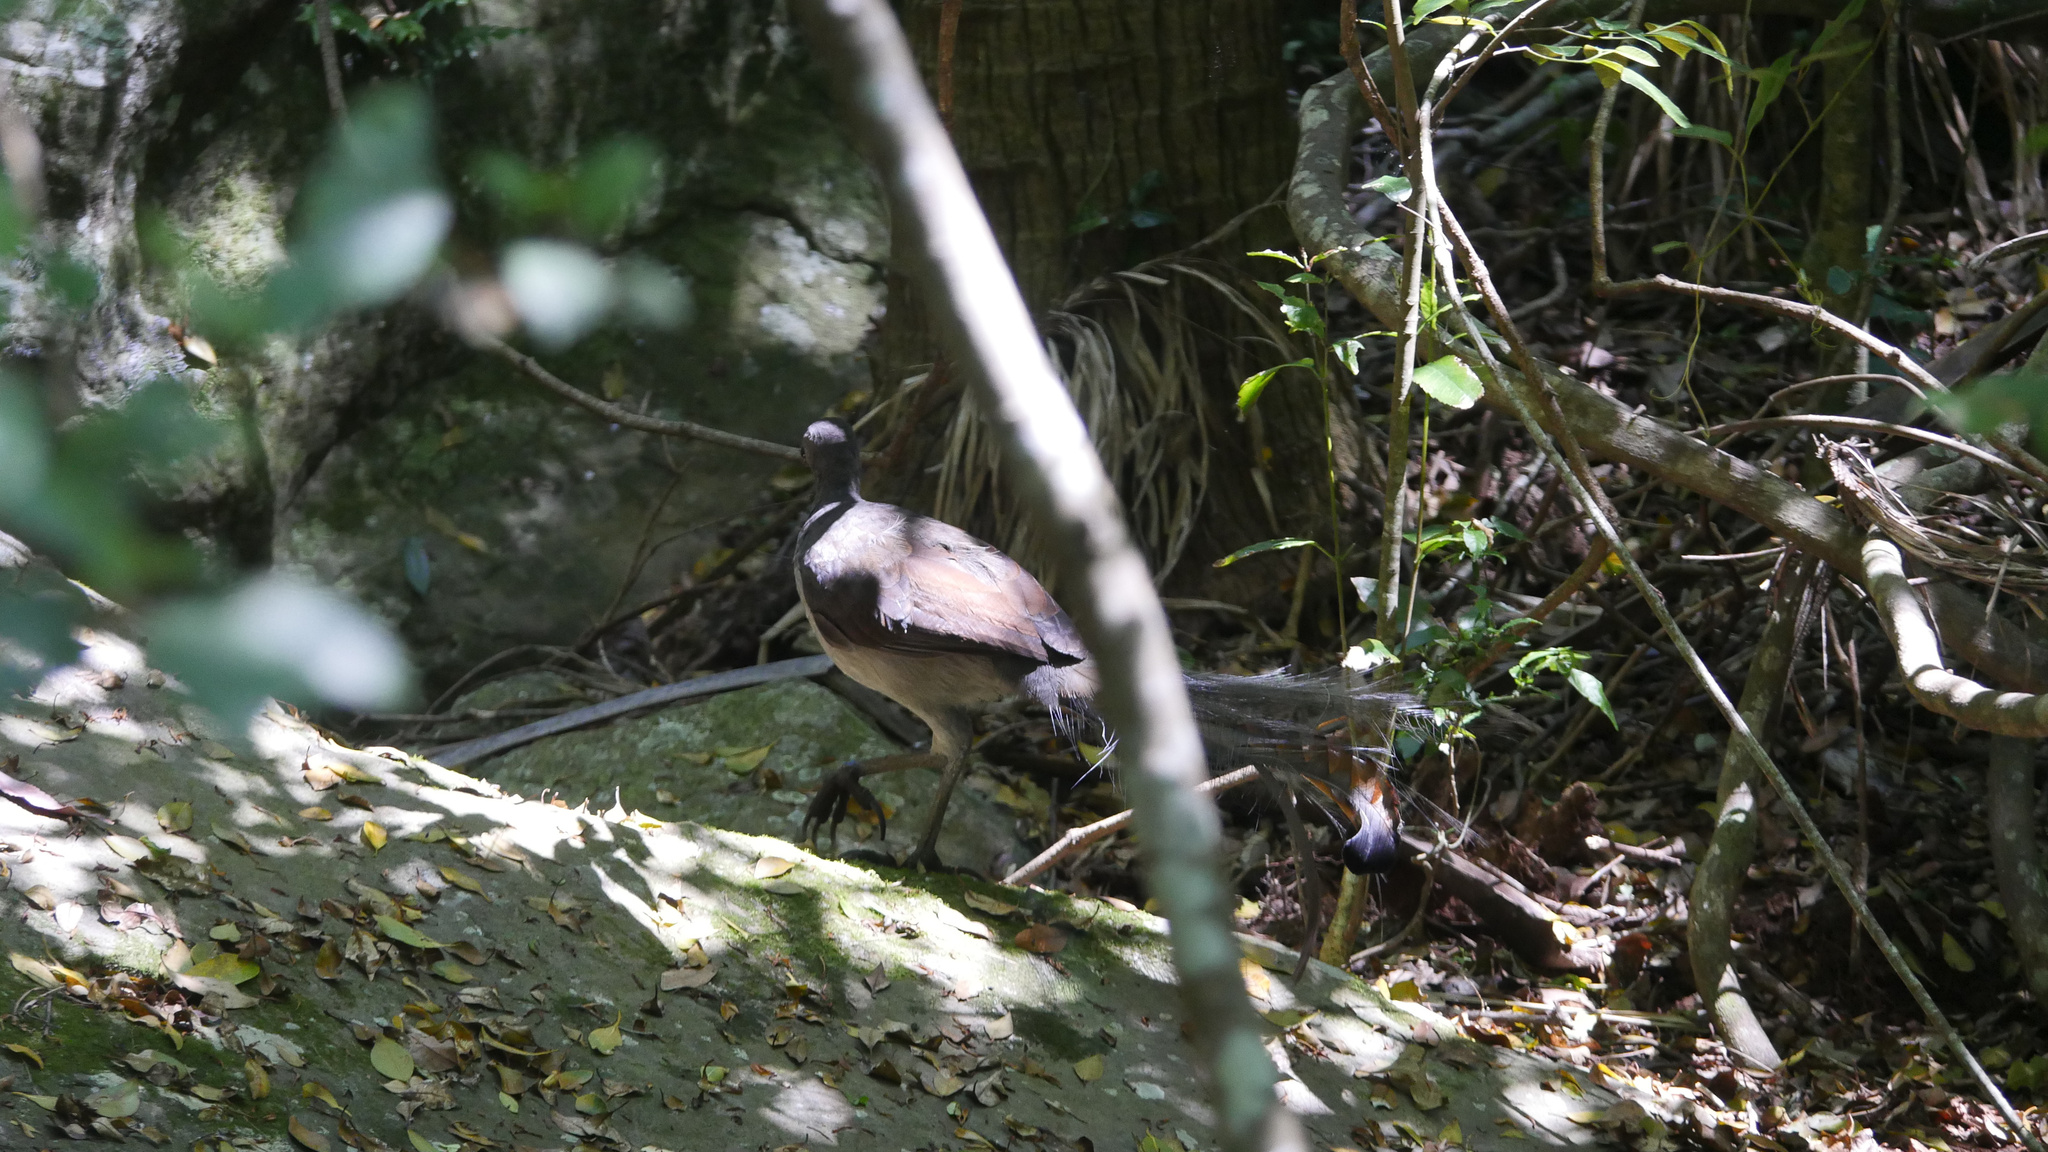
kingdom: Animalia
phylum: Chordata
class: Aves
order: Passeriformes
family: Menuridae
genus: Menura
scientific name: Menura novaehollandiae
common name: Superb lyrebird
